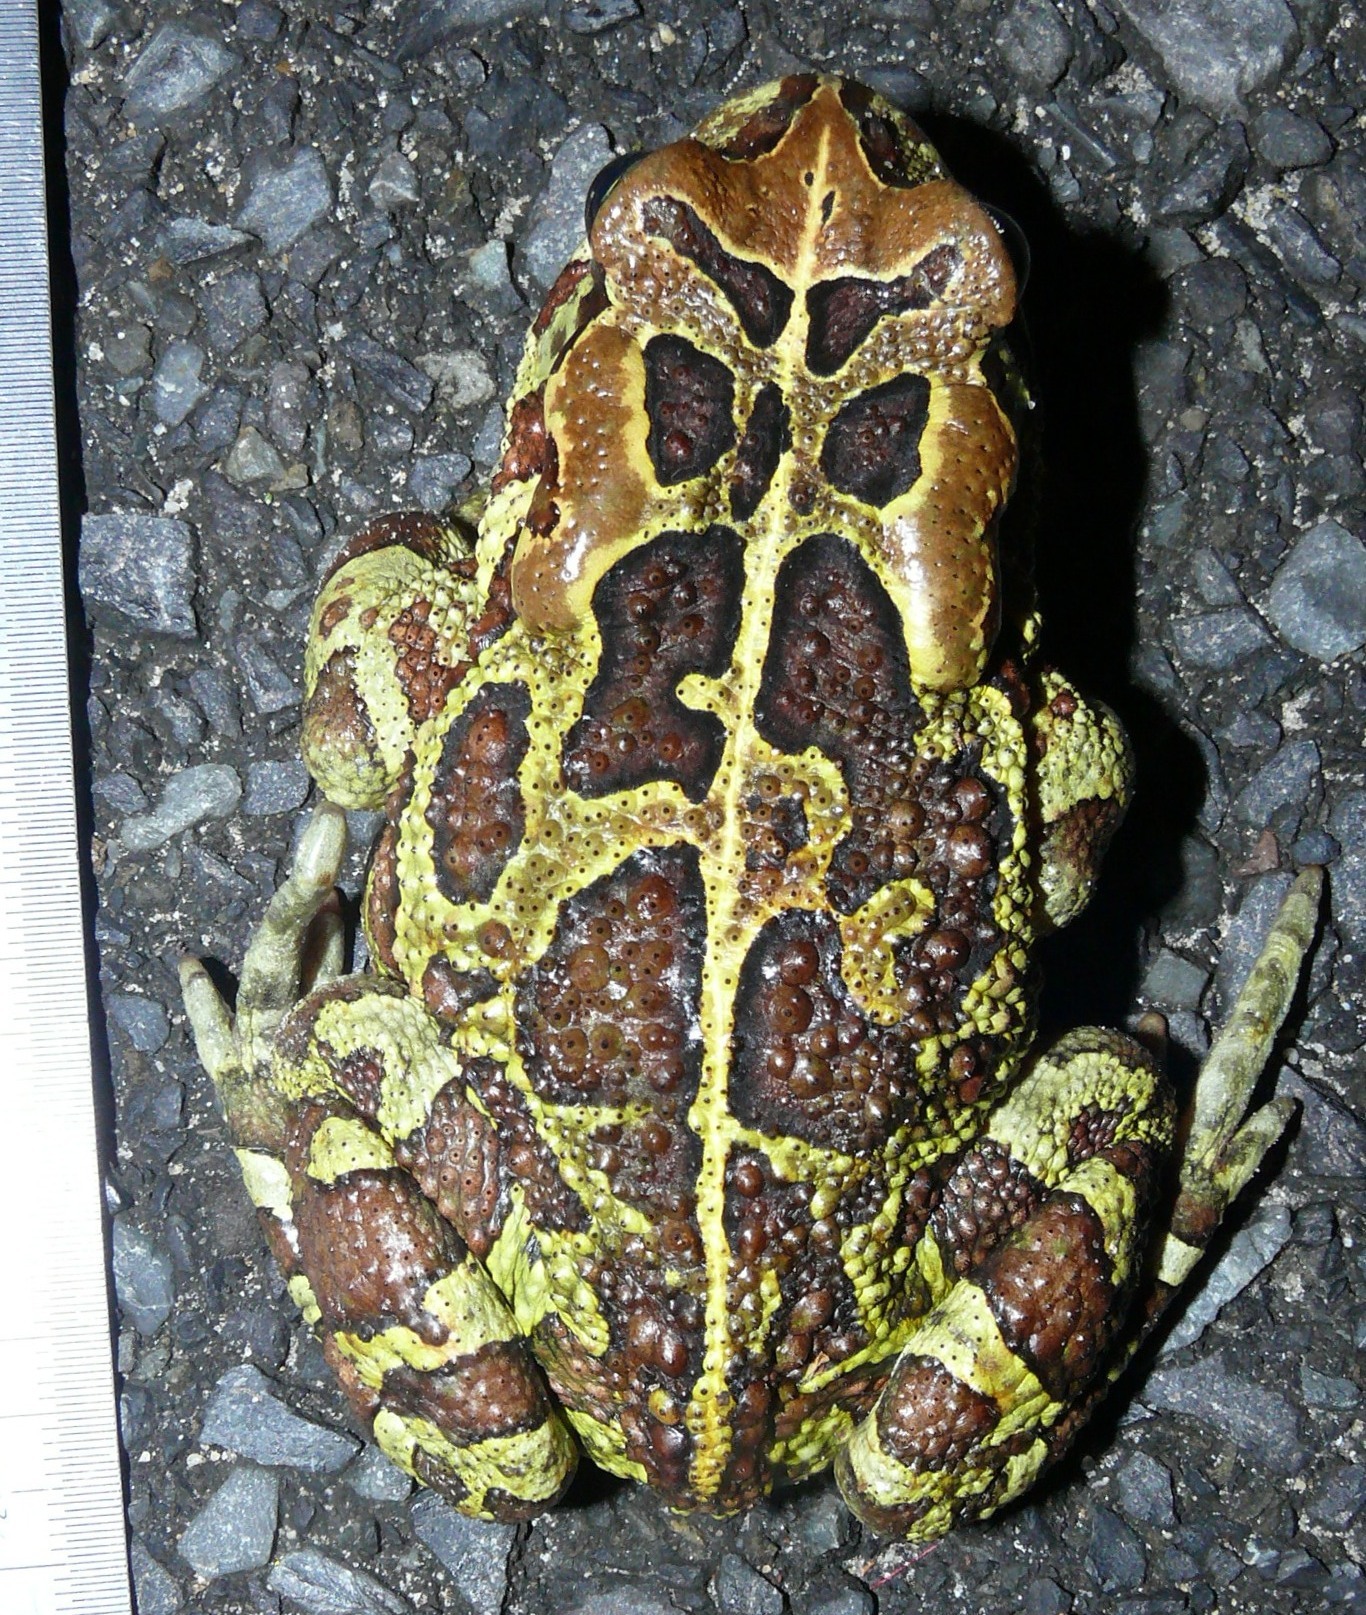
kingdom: Animalia
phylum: Chordata
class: Amphibia
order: Anura
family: Bufonidae
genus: Sclerophrys
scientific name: Sclerophrys pantherina
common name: Panther toad
